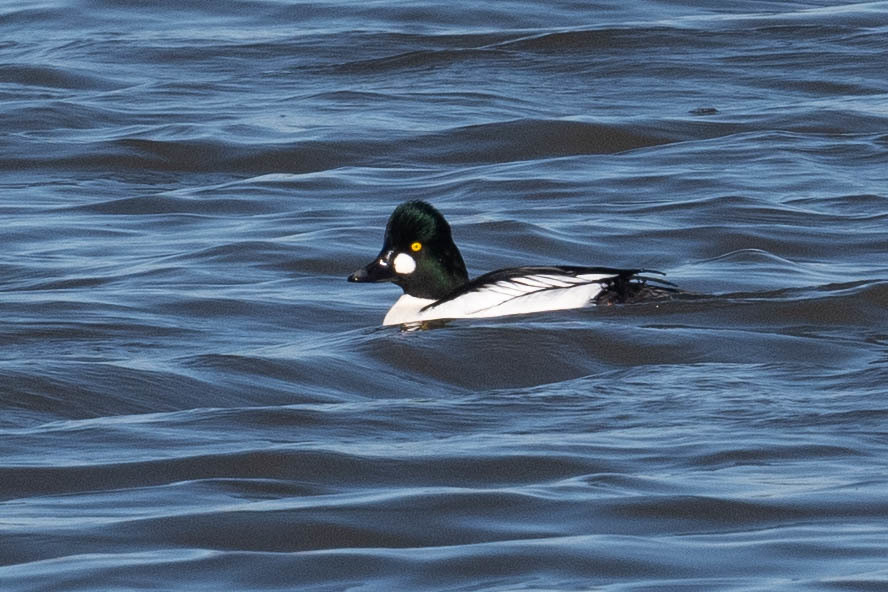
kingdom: Animalia
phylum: Chordata
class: Aves
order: Anseriformes
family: Anatidae
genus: Bucephala
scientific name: Bucephala clangula
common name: Common goldeneye
